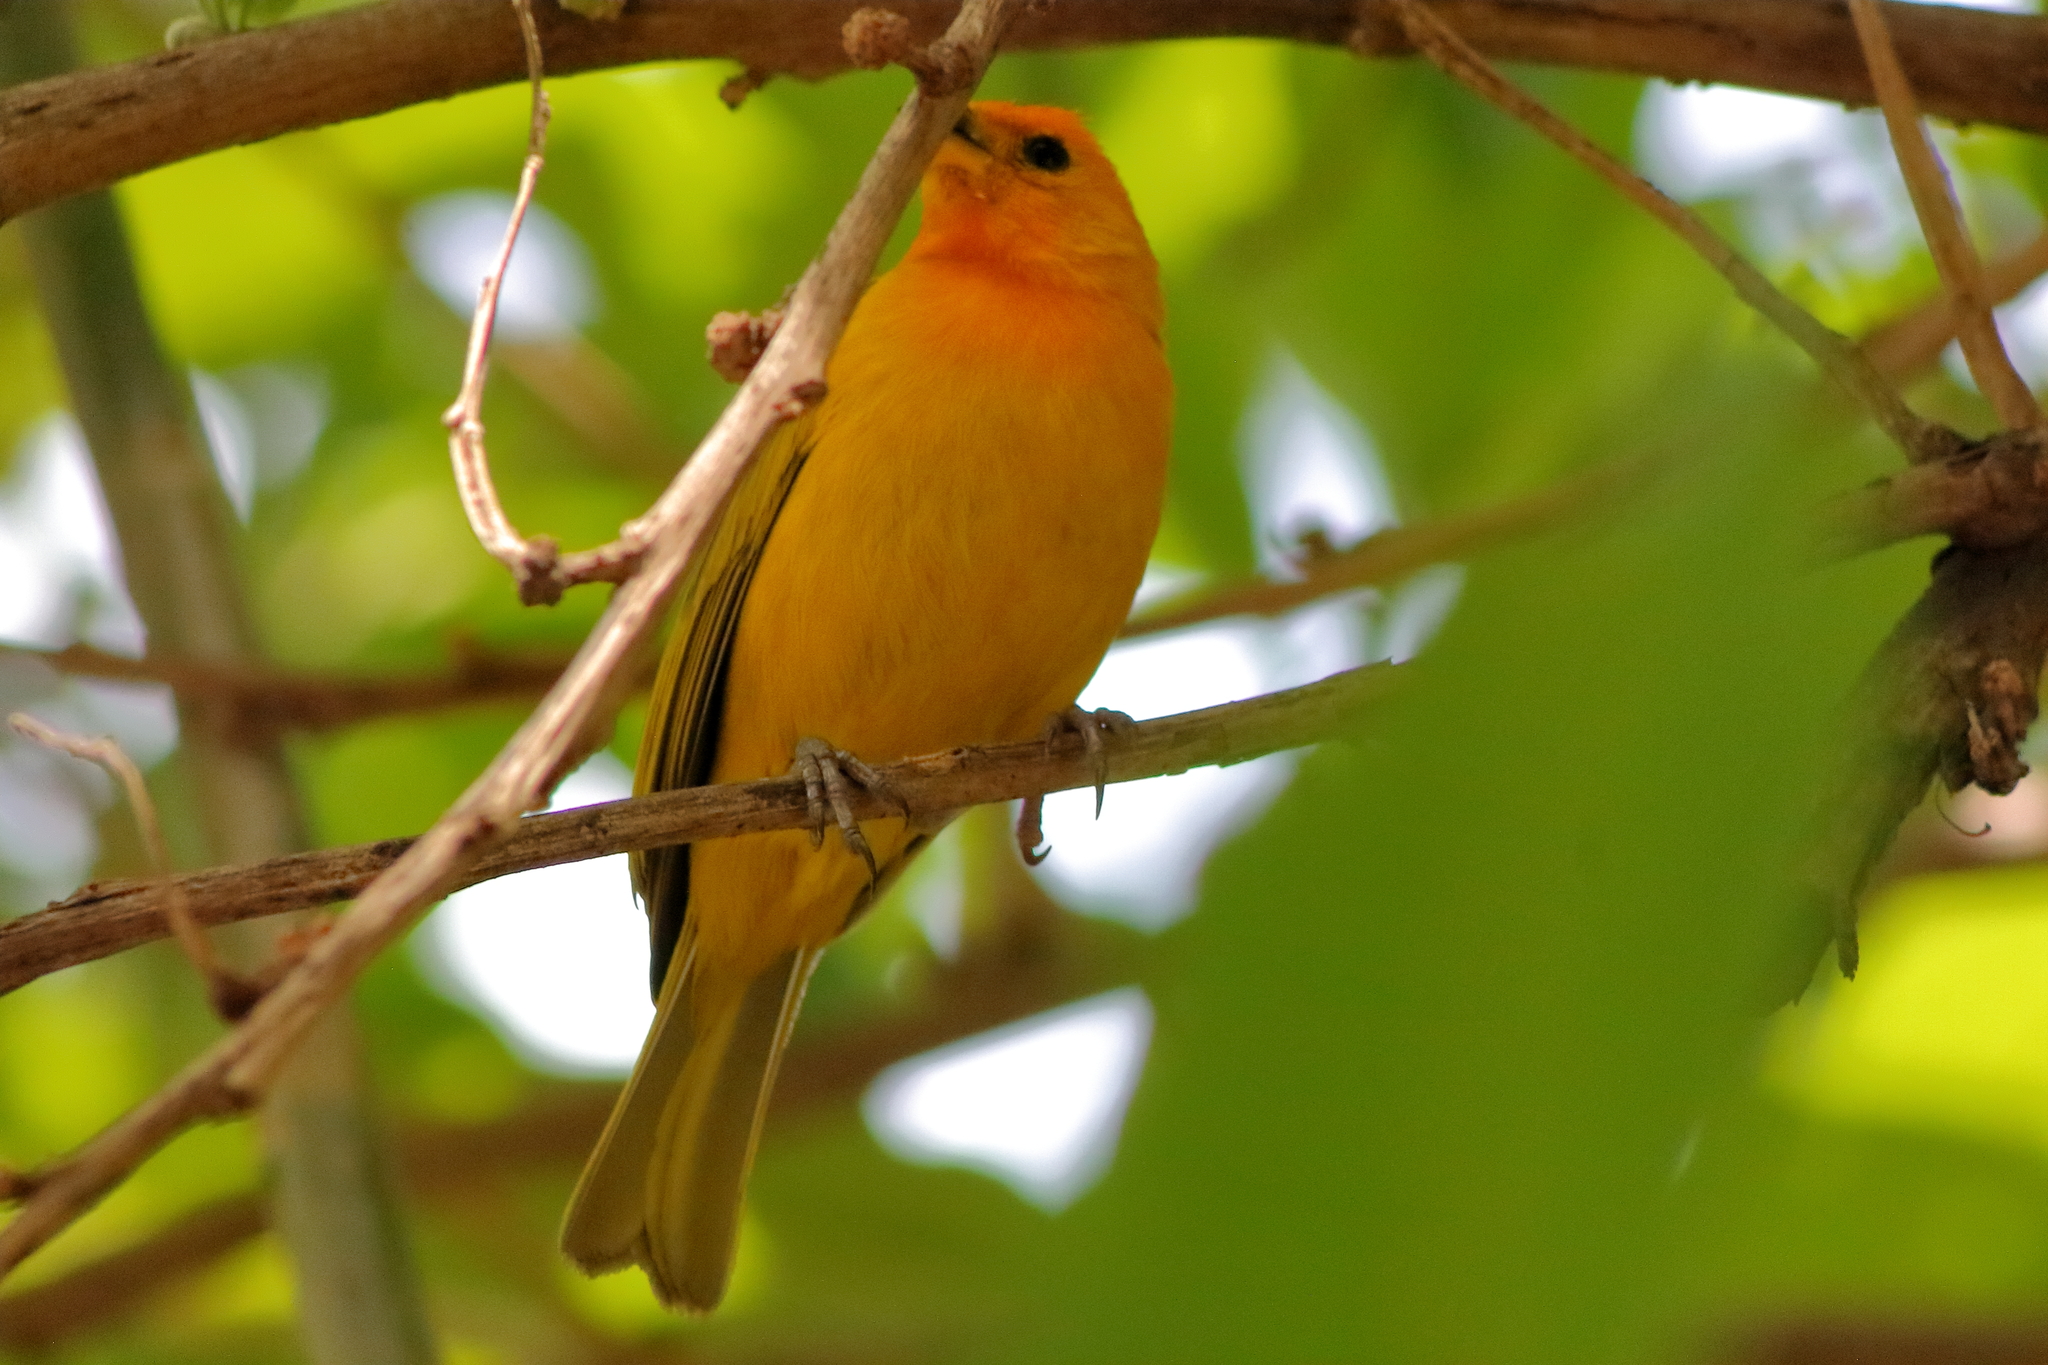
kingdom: Animalia
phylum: Chordata
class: Aves
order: Passeriformes
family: Thraupidae
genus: Sicalis
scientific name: Sicalis flaveola
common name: Saffron finch
